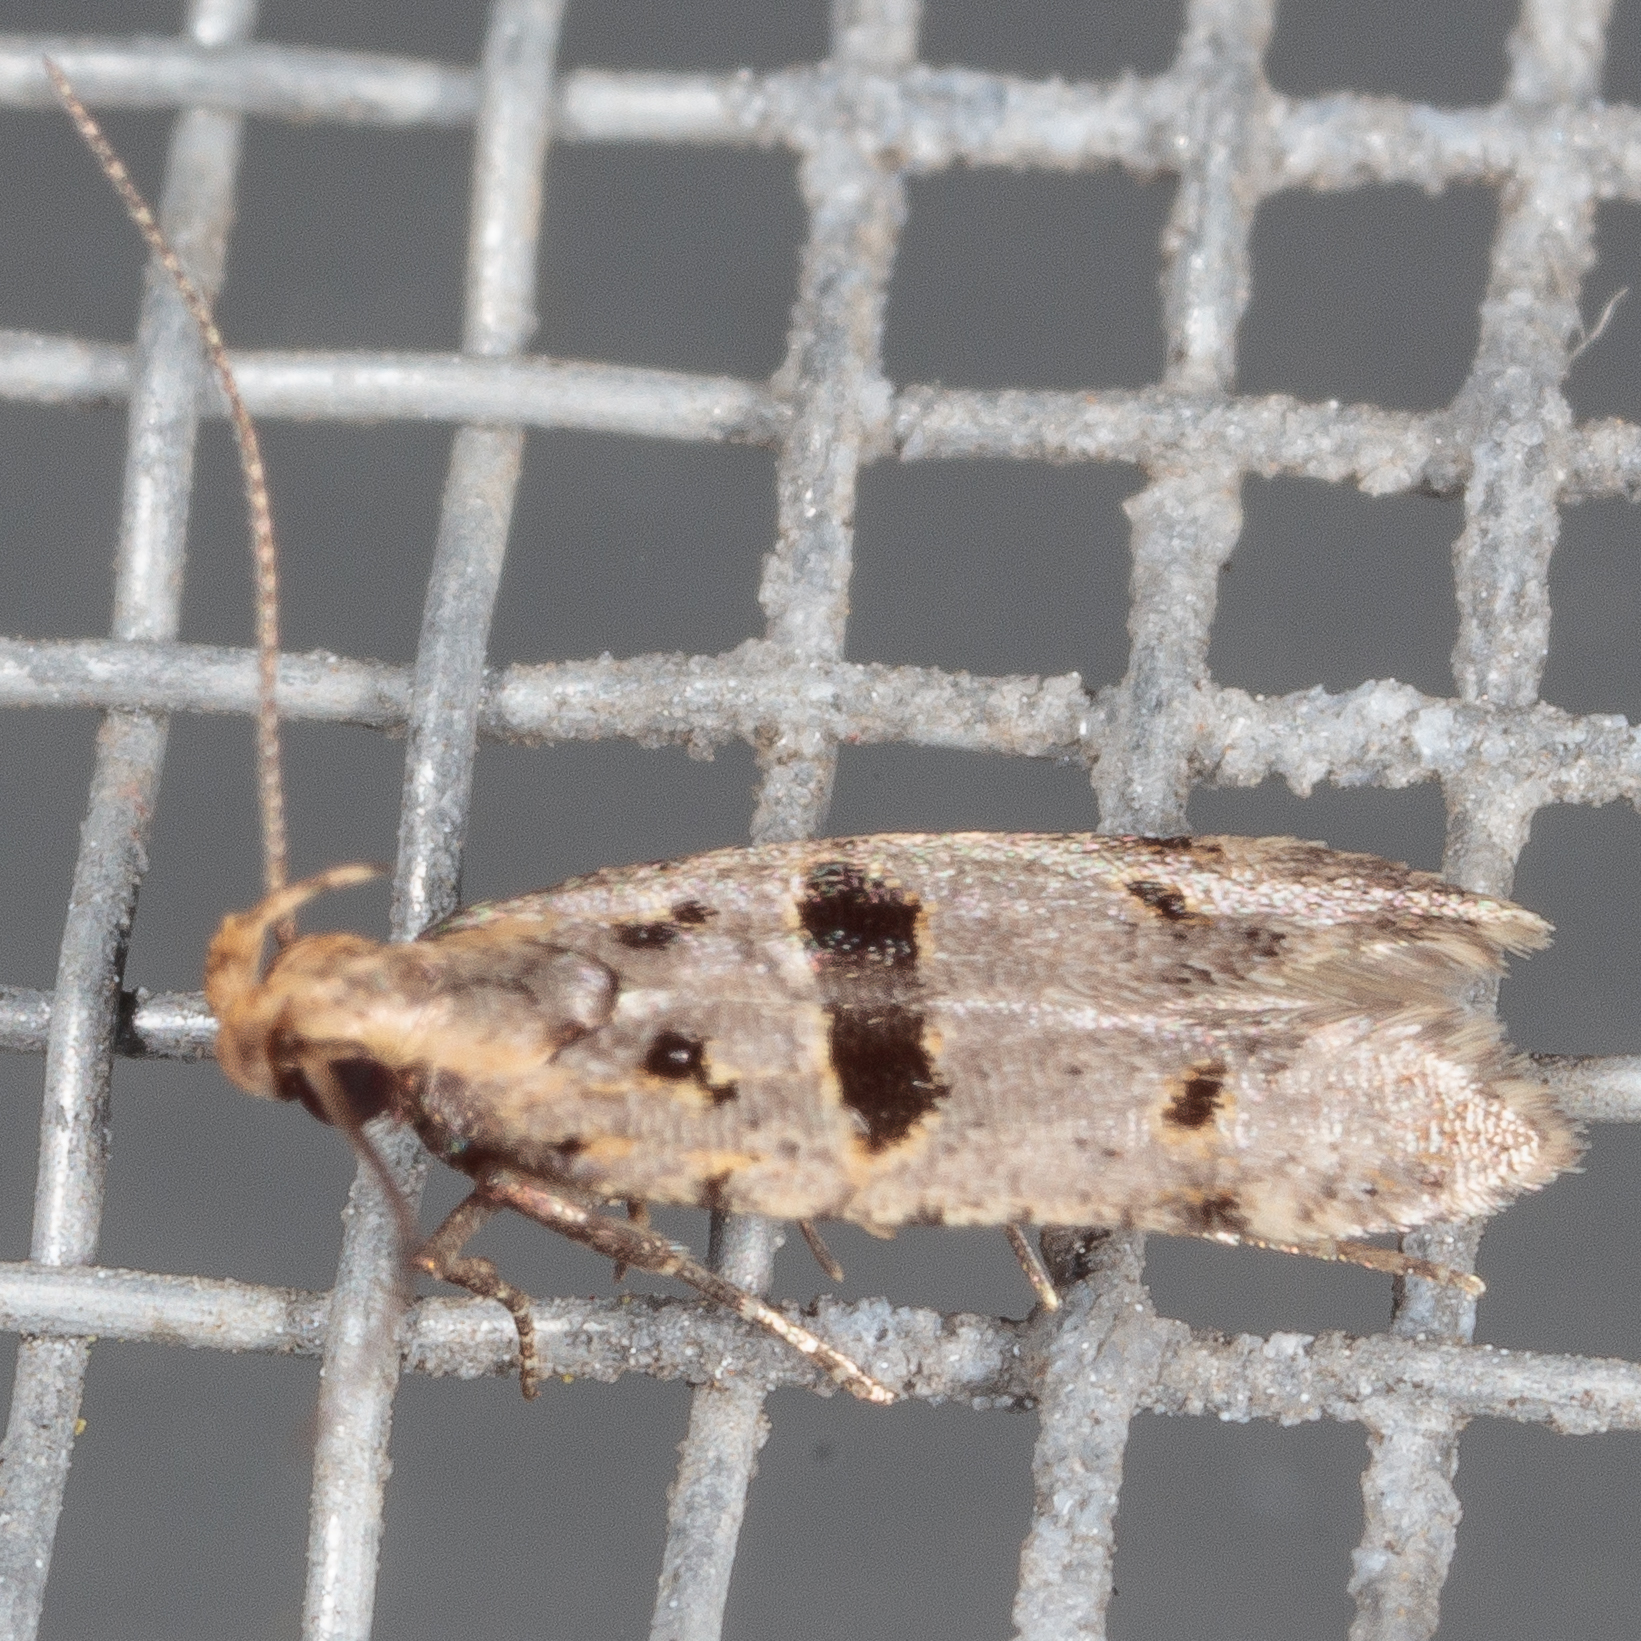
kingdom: Animalia
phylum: Arthropoda
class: Insecta
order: Lepidoptera
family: Gelechiidae
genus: Deltophora
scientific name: Deltophora glandiferella
